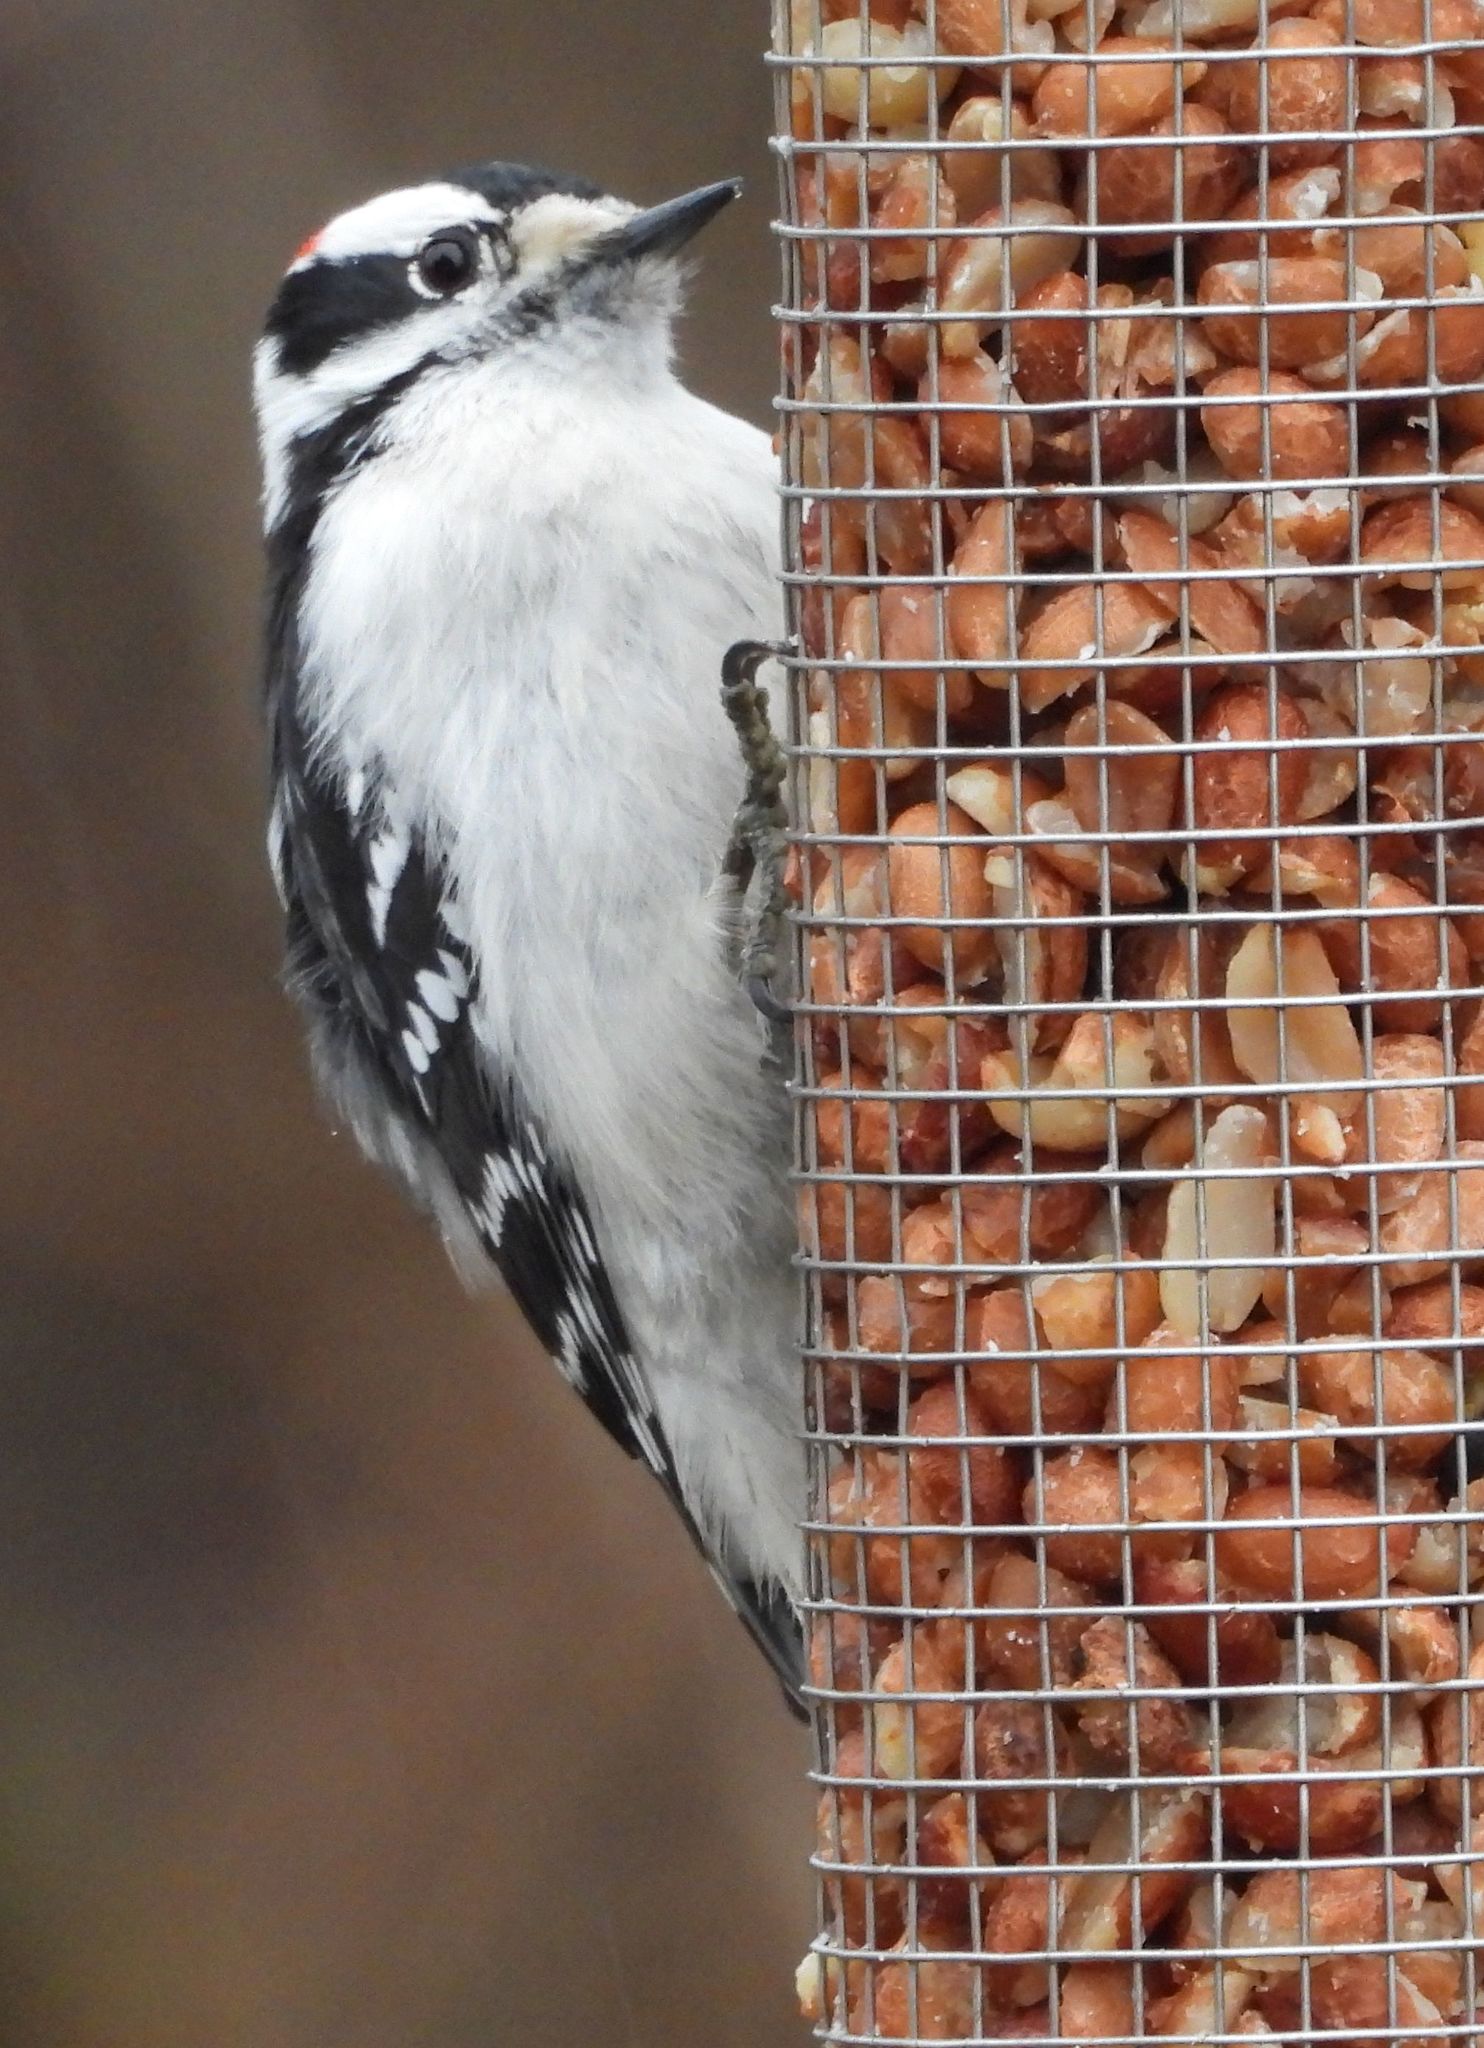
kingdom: Animalia
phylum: Chordata
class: Aves
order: Piciformes
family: Picidae
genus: Dryobates
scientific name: Dryobates pubescens
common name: Downy woodpecker
